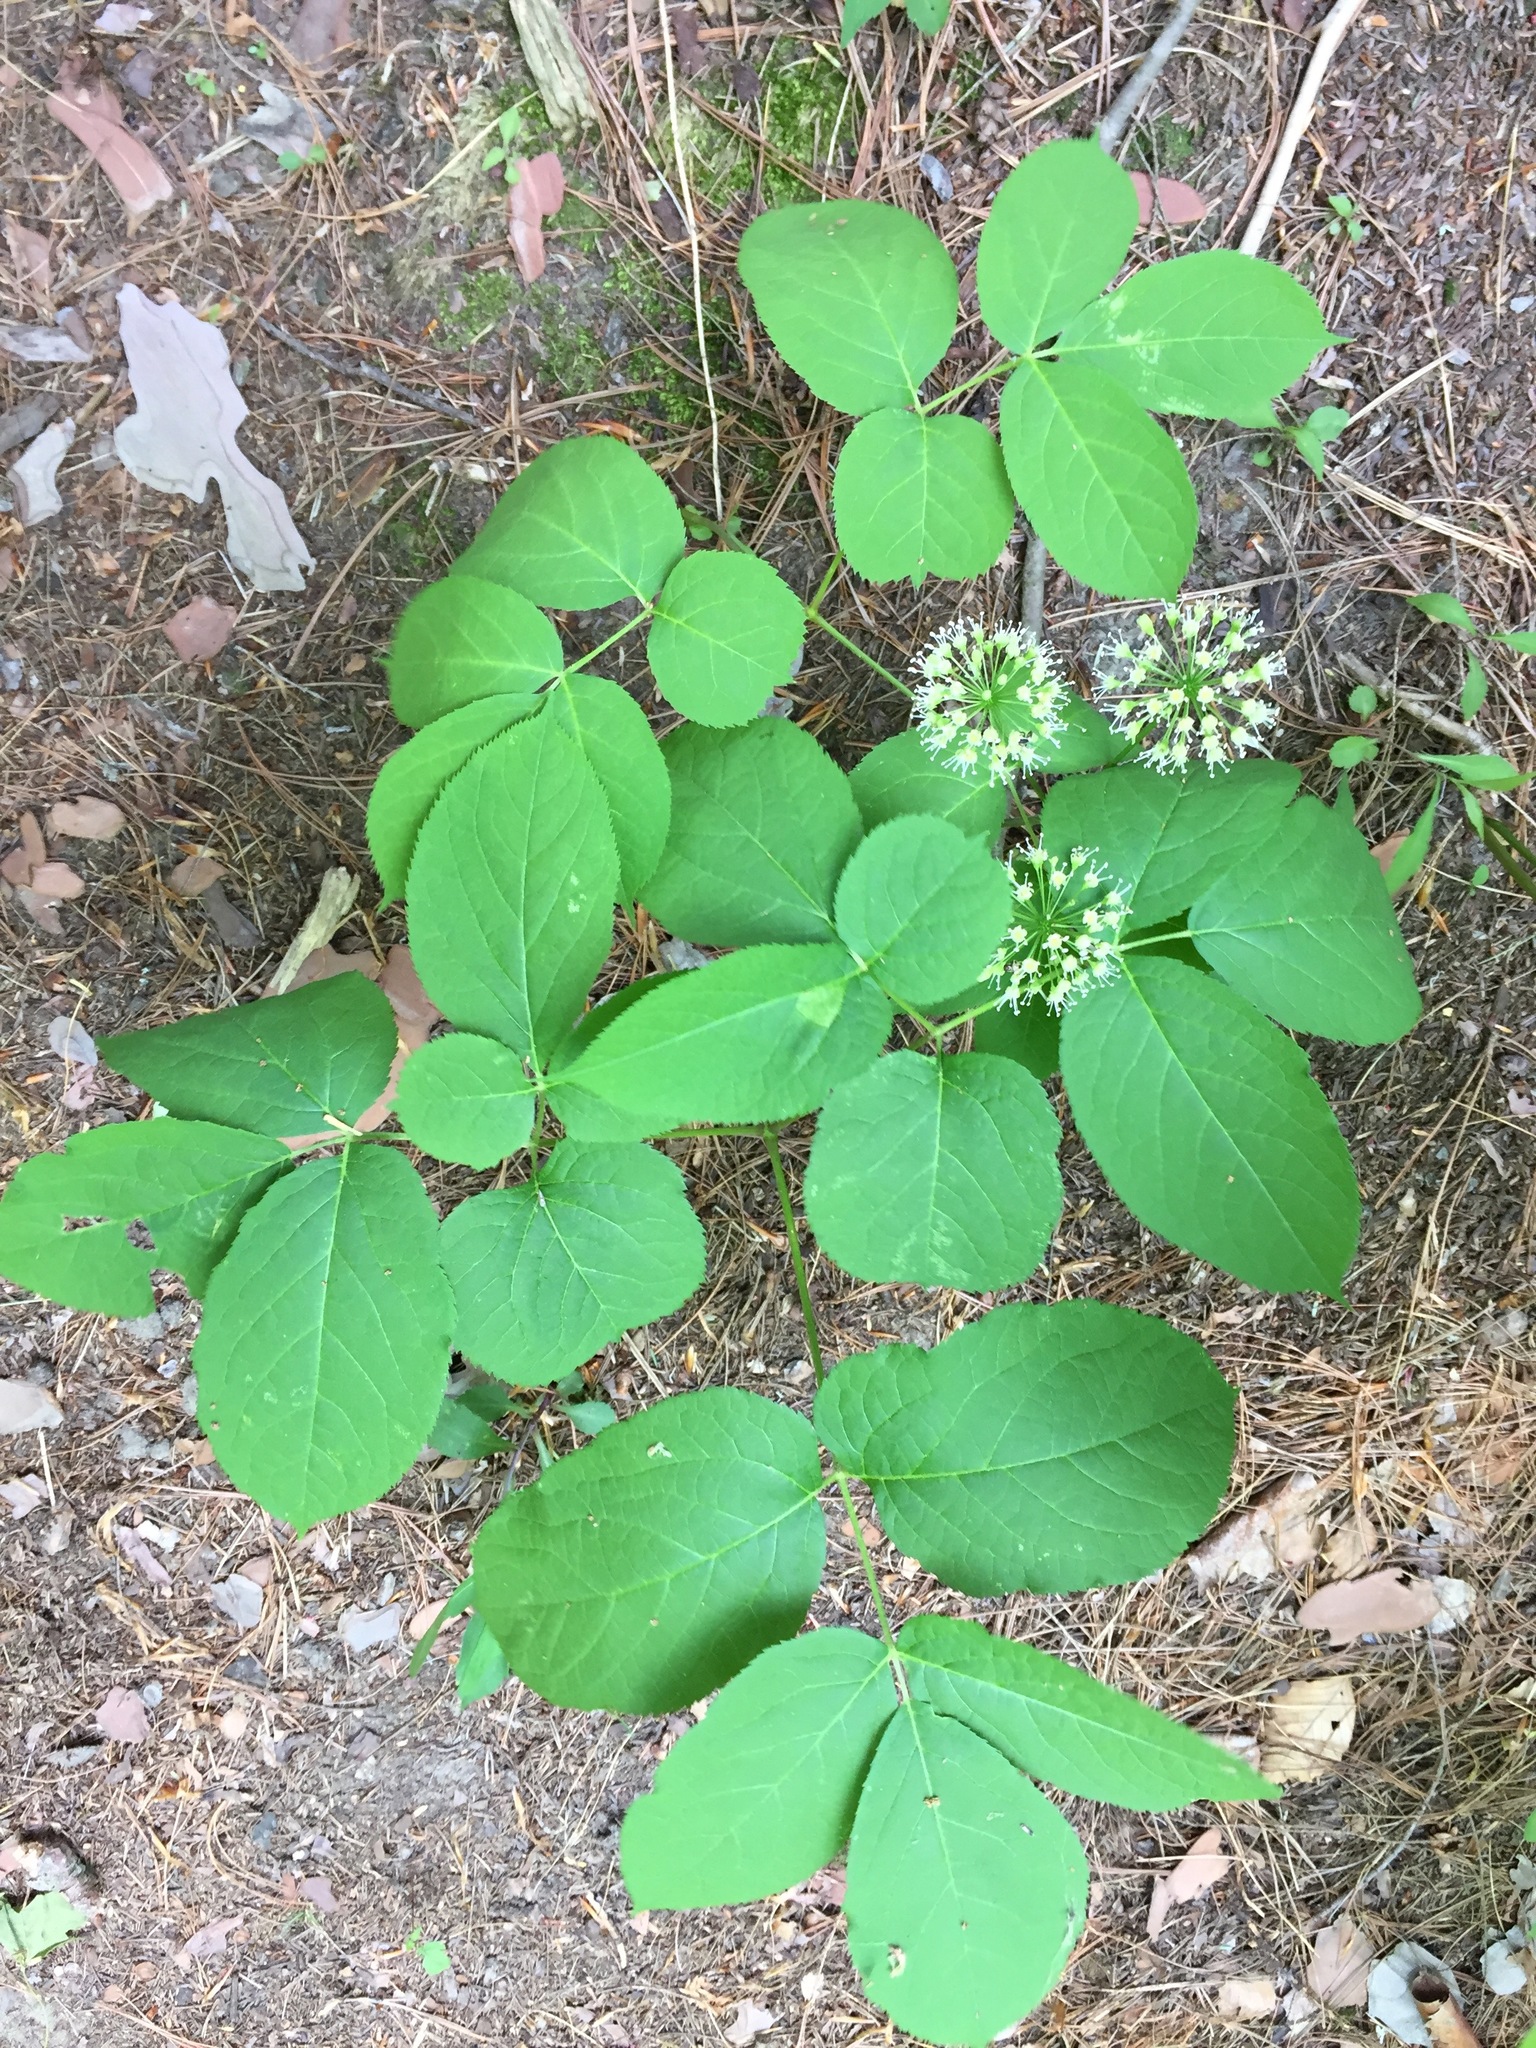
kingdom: Plantae
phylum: Tracheophyta
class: Magnoliopsida
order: Apiales
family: Araliaceae
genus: Aralia
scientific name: Aralia nudicaulis
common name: Wild sarsaparilla
